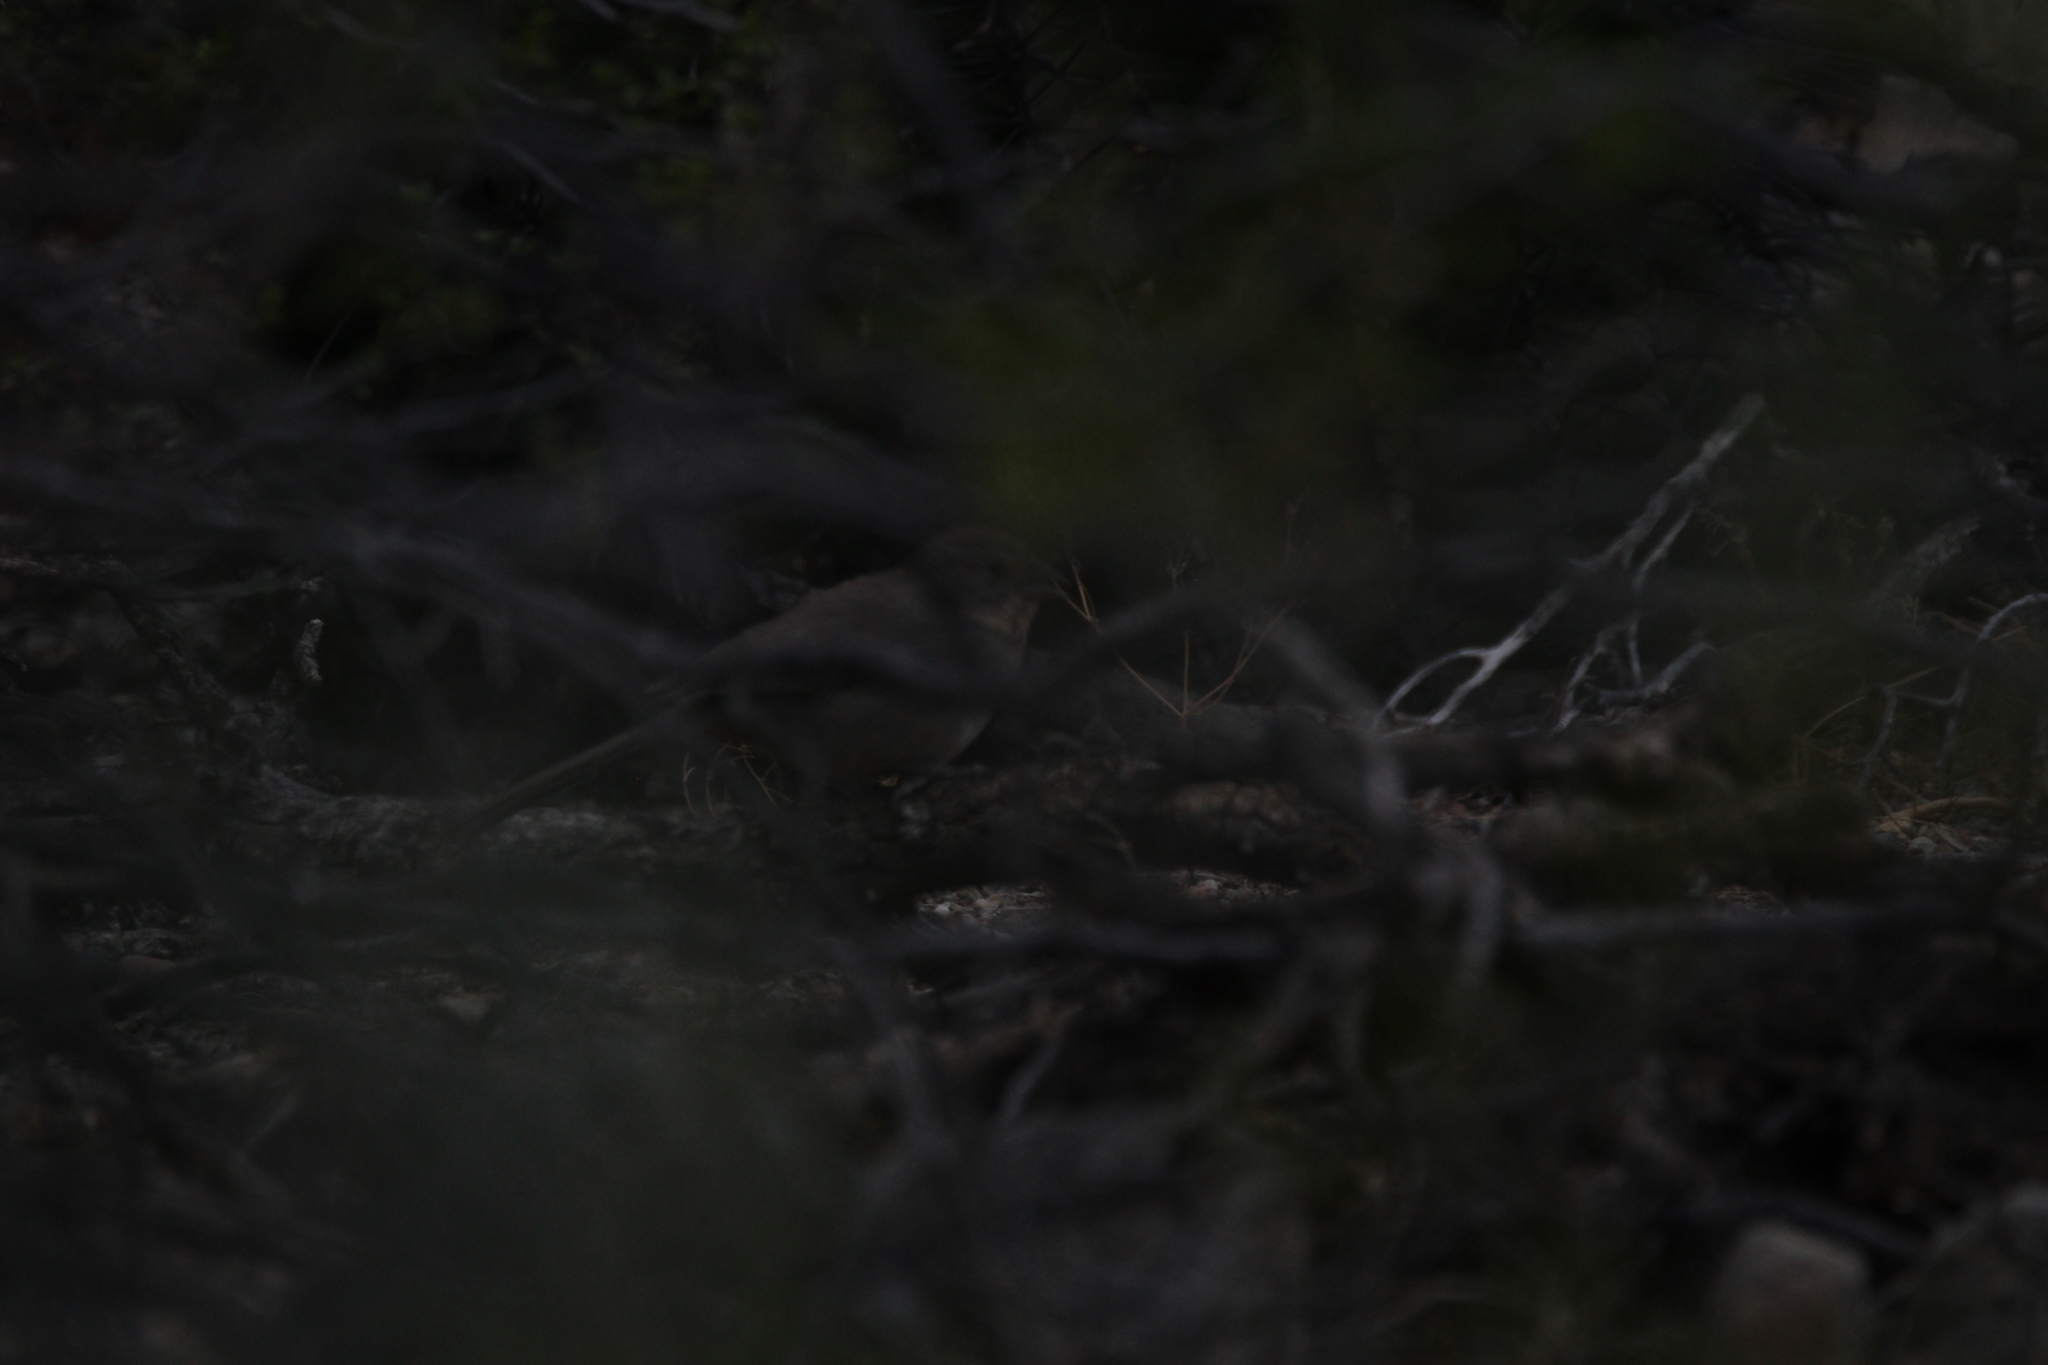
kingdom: Animalia
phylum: Chordata
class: Aves
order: Passeriformes
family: Fringillidae
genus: Haemorhous
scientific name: Haemorhous mexicanus
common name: House finch
